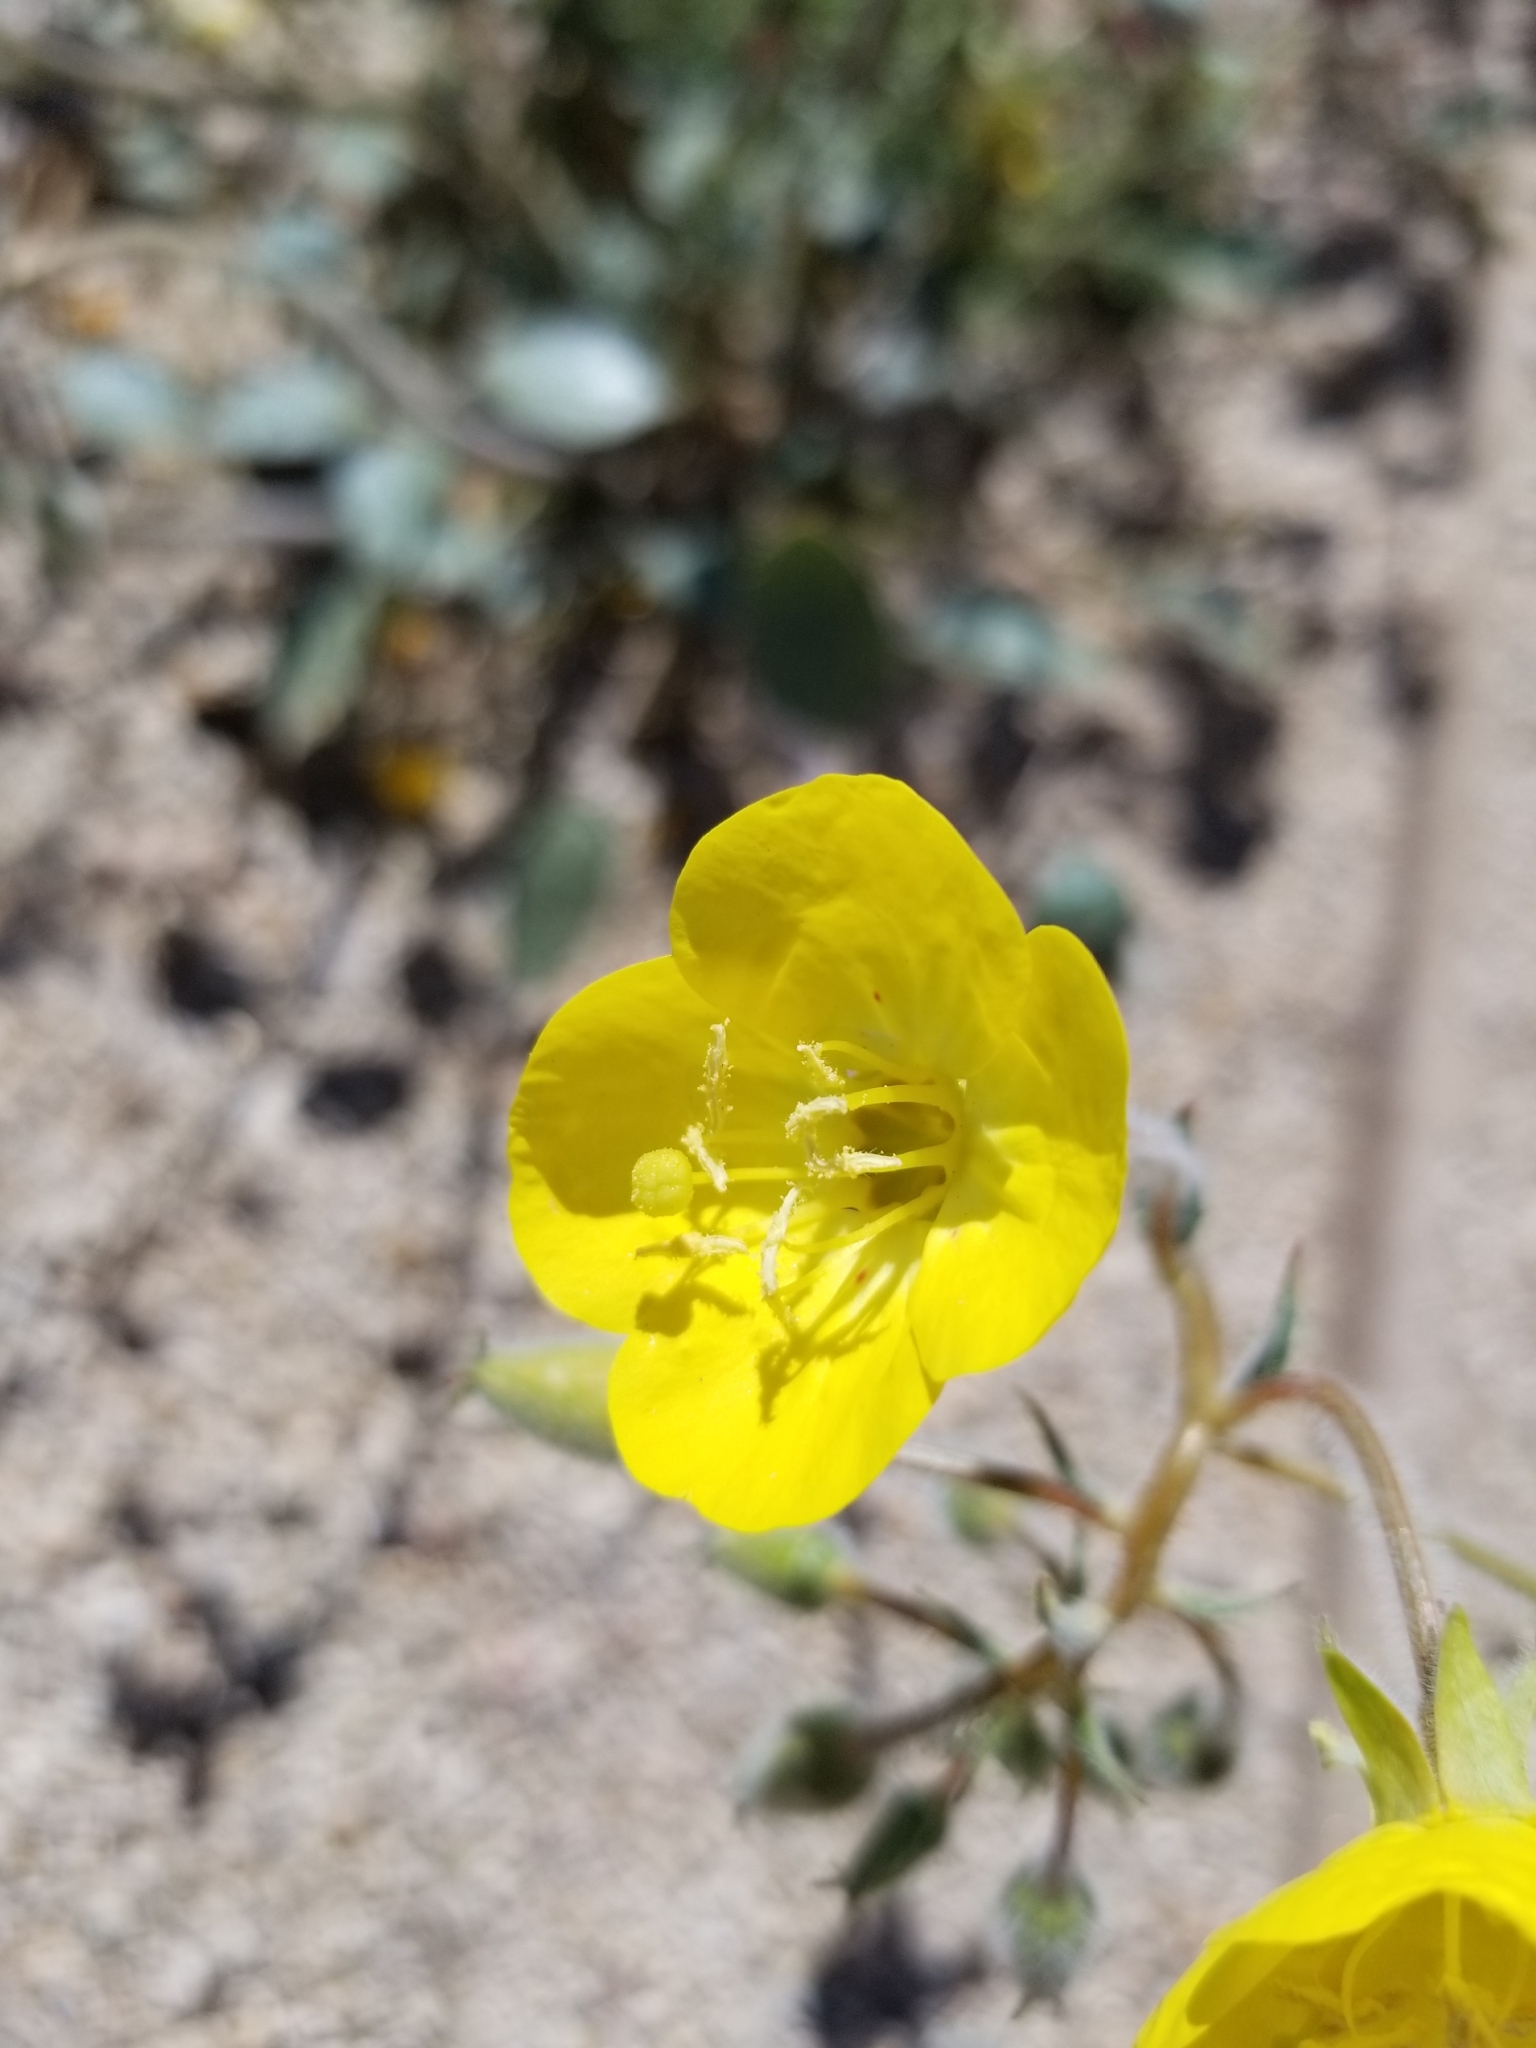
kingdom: Plantae
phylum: Tracheophyta
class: Magnoliopsida
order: Myrtales
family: Onagraceae
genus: Chylismia
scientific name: Chylismia brevipes
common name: Yellow cups
